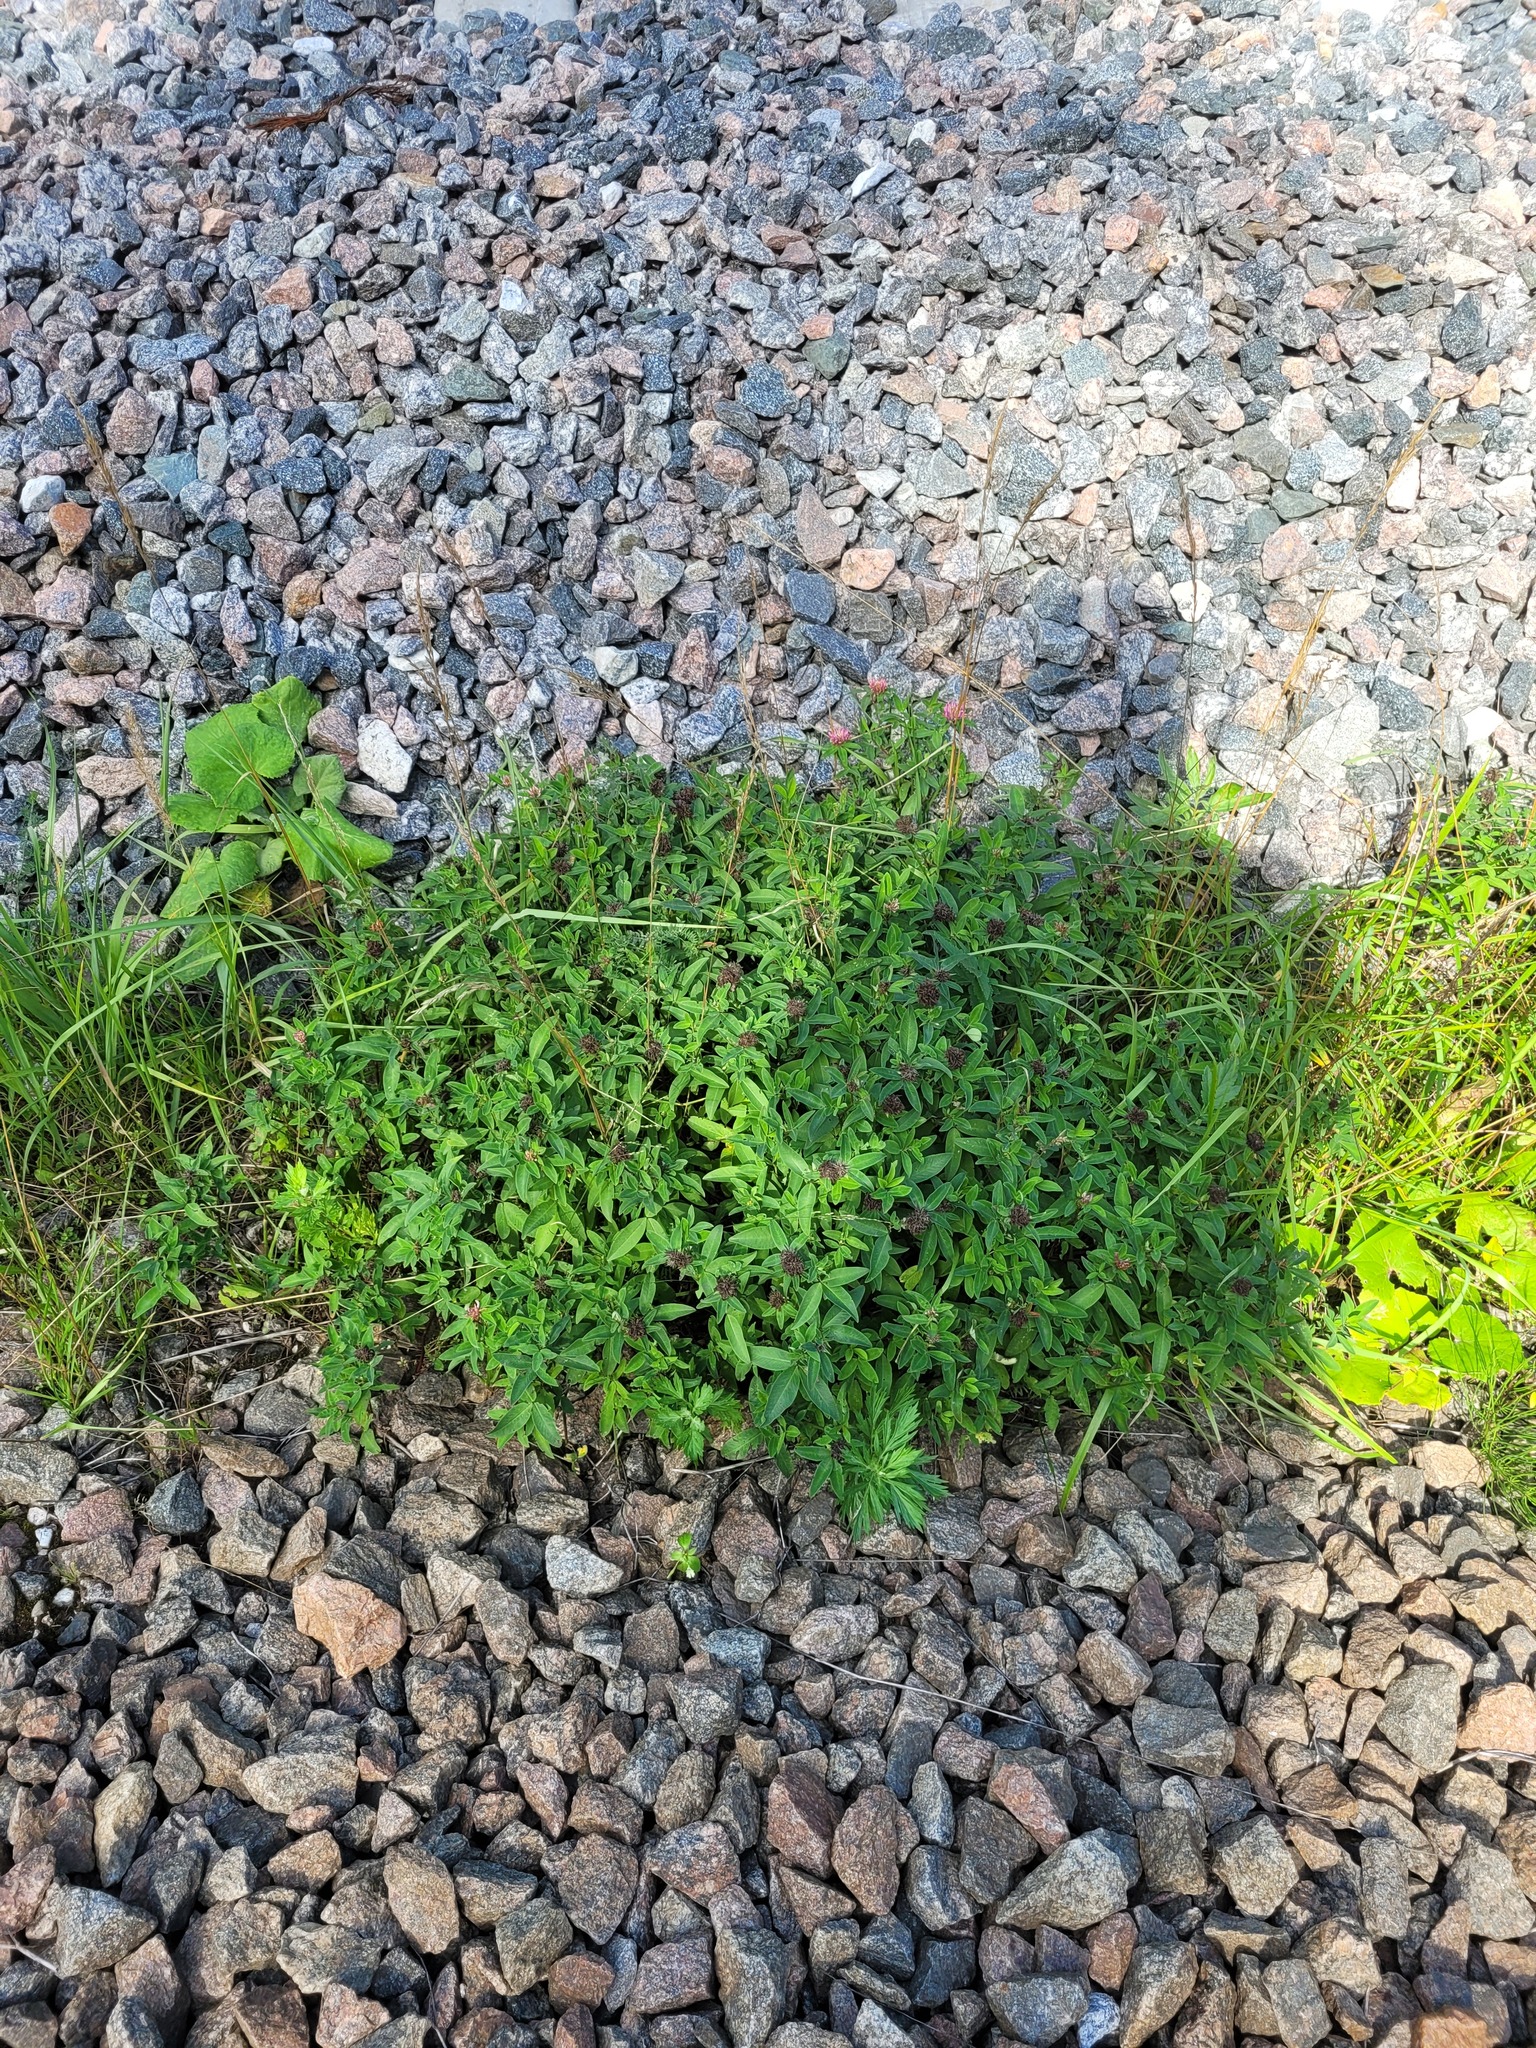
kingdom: Plantae
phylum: Tracheophyta
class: Magnoliopsida
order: Fabales
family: Fabaceae
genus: Trifolium
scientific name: Trifolium medium
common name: Zigzag clover
